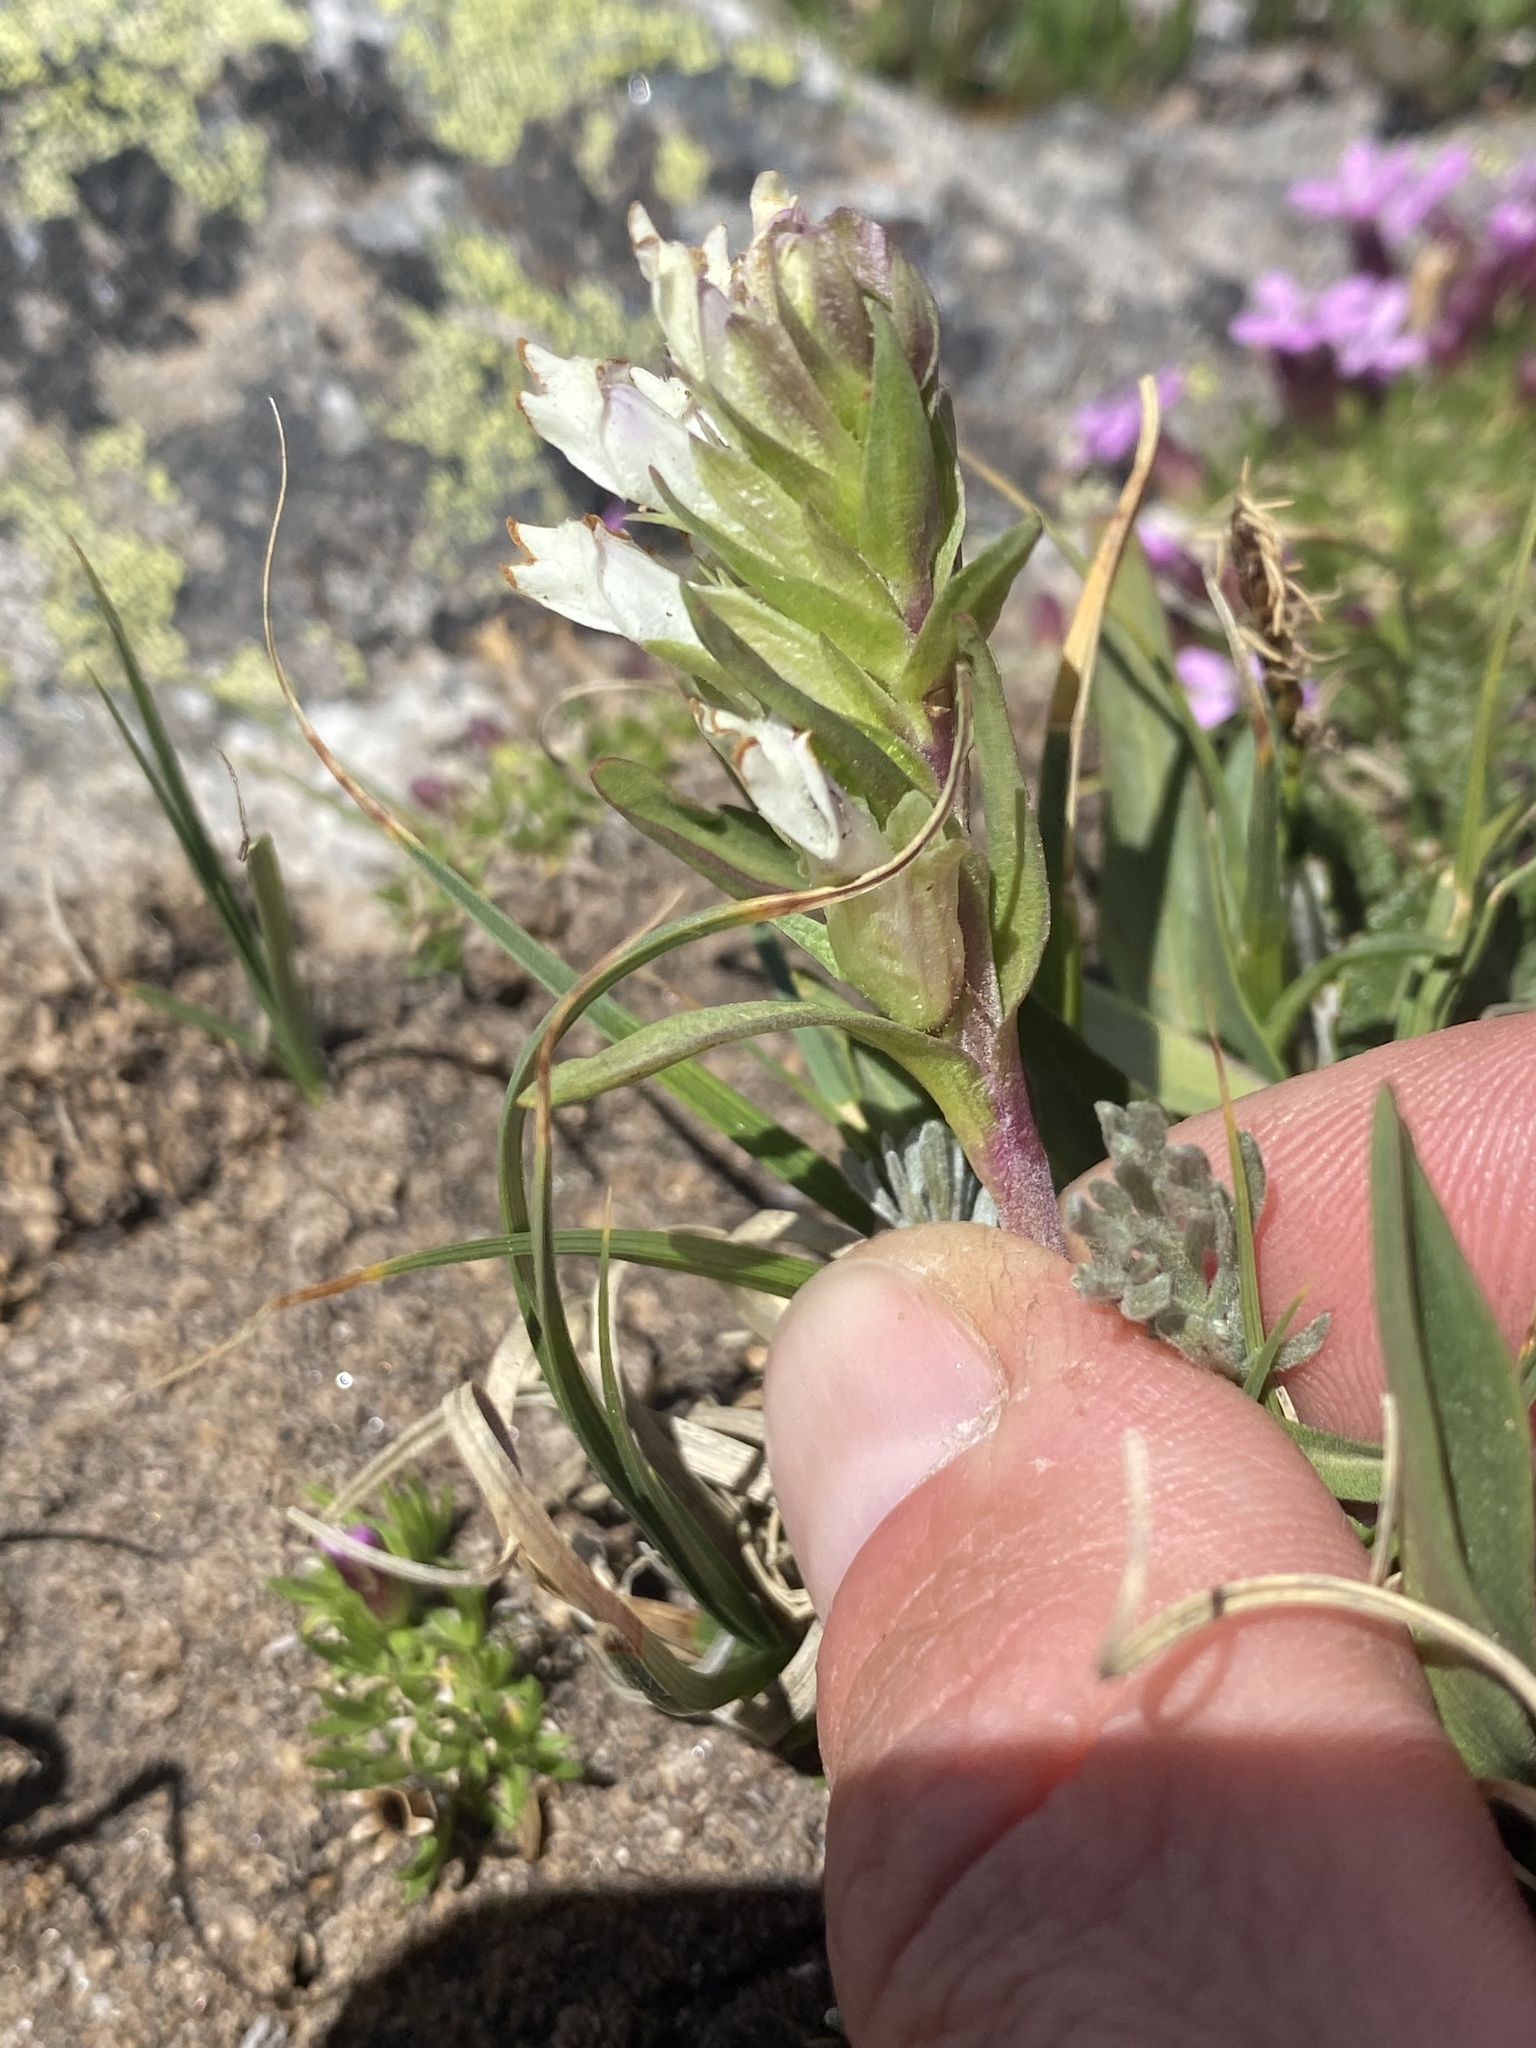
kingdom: Plantae
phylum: Tracheophyta
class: Magnoliopsida
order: Lamiales
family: Plantaginaceae
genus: Chionophila
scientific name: Chionophila jamesii
